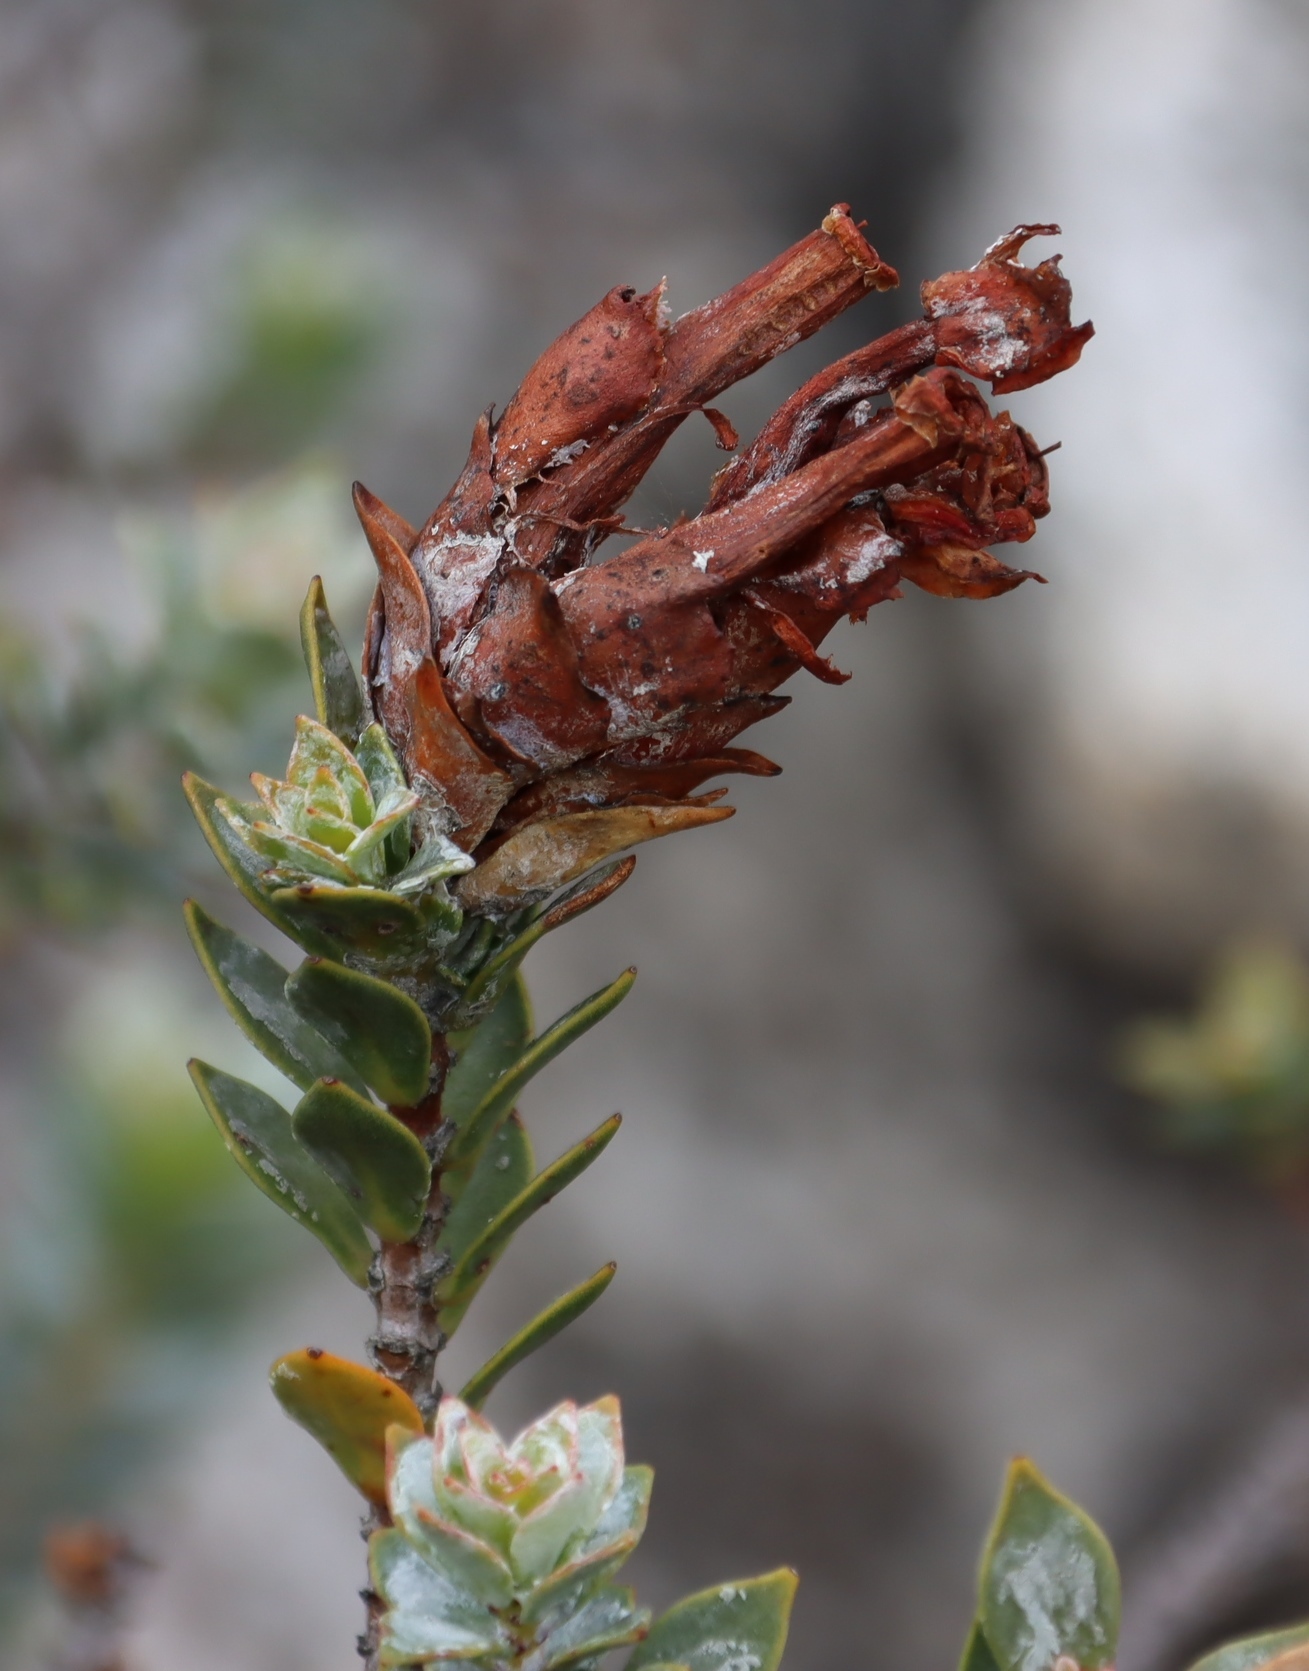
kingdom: Plantae
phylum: Tracheophyta
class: Magnoliopsida
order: Myrtales
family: Penaeaceae
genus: Saltera
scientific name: Saltera sarcocolla
